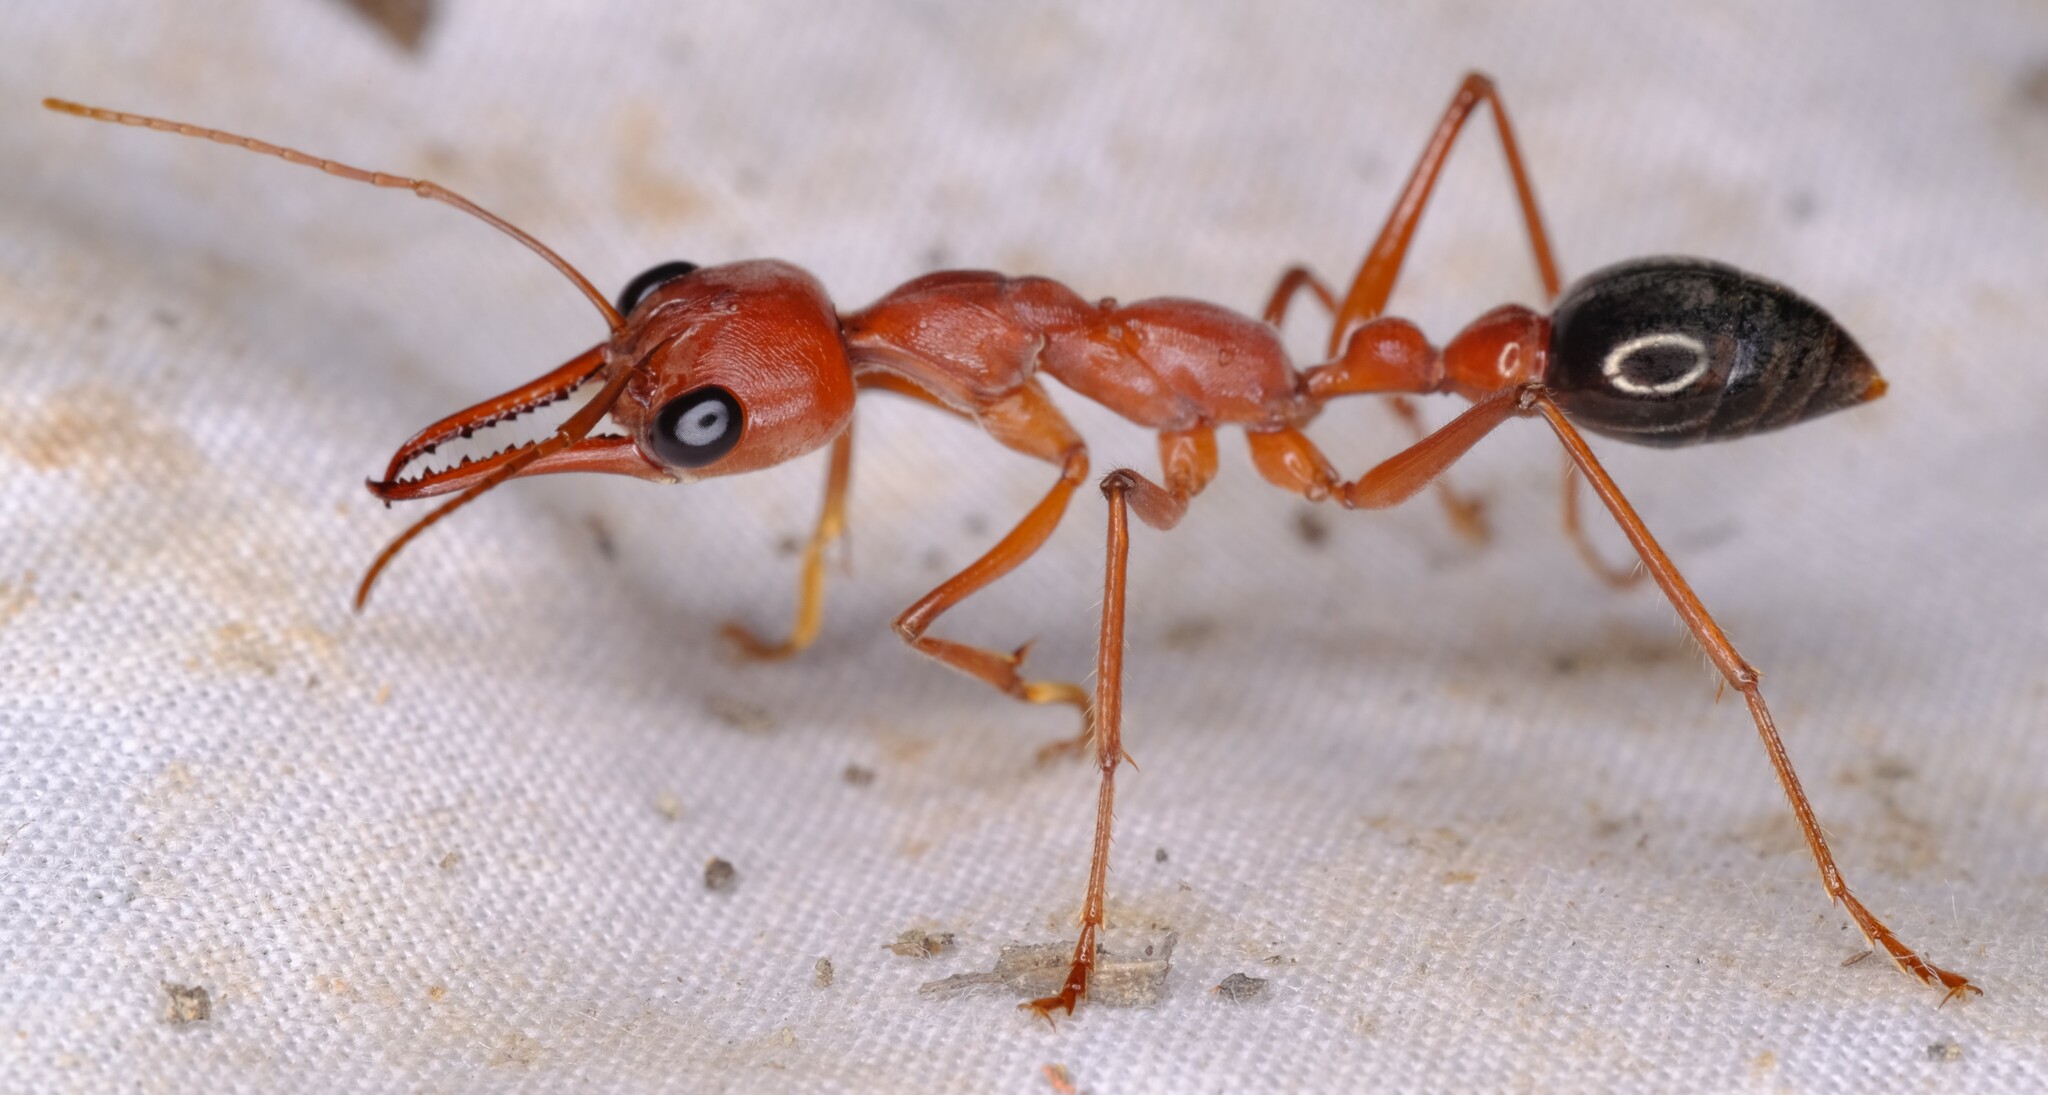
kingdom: Animalia
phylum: Arthropoda
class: Insecta
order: Hymenoptera
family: Formicidae
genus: Myrmecia
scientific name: Myrmecia brevinoda
